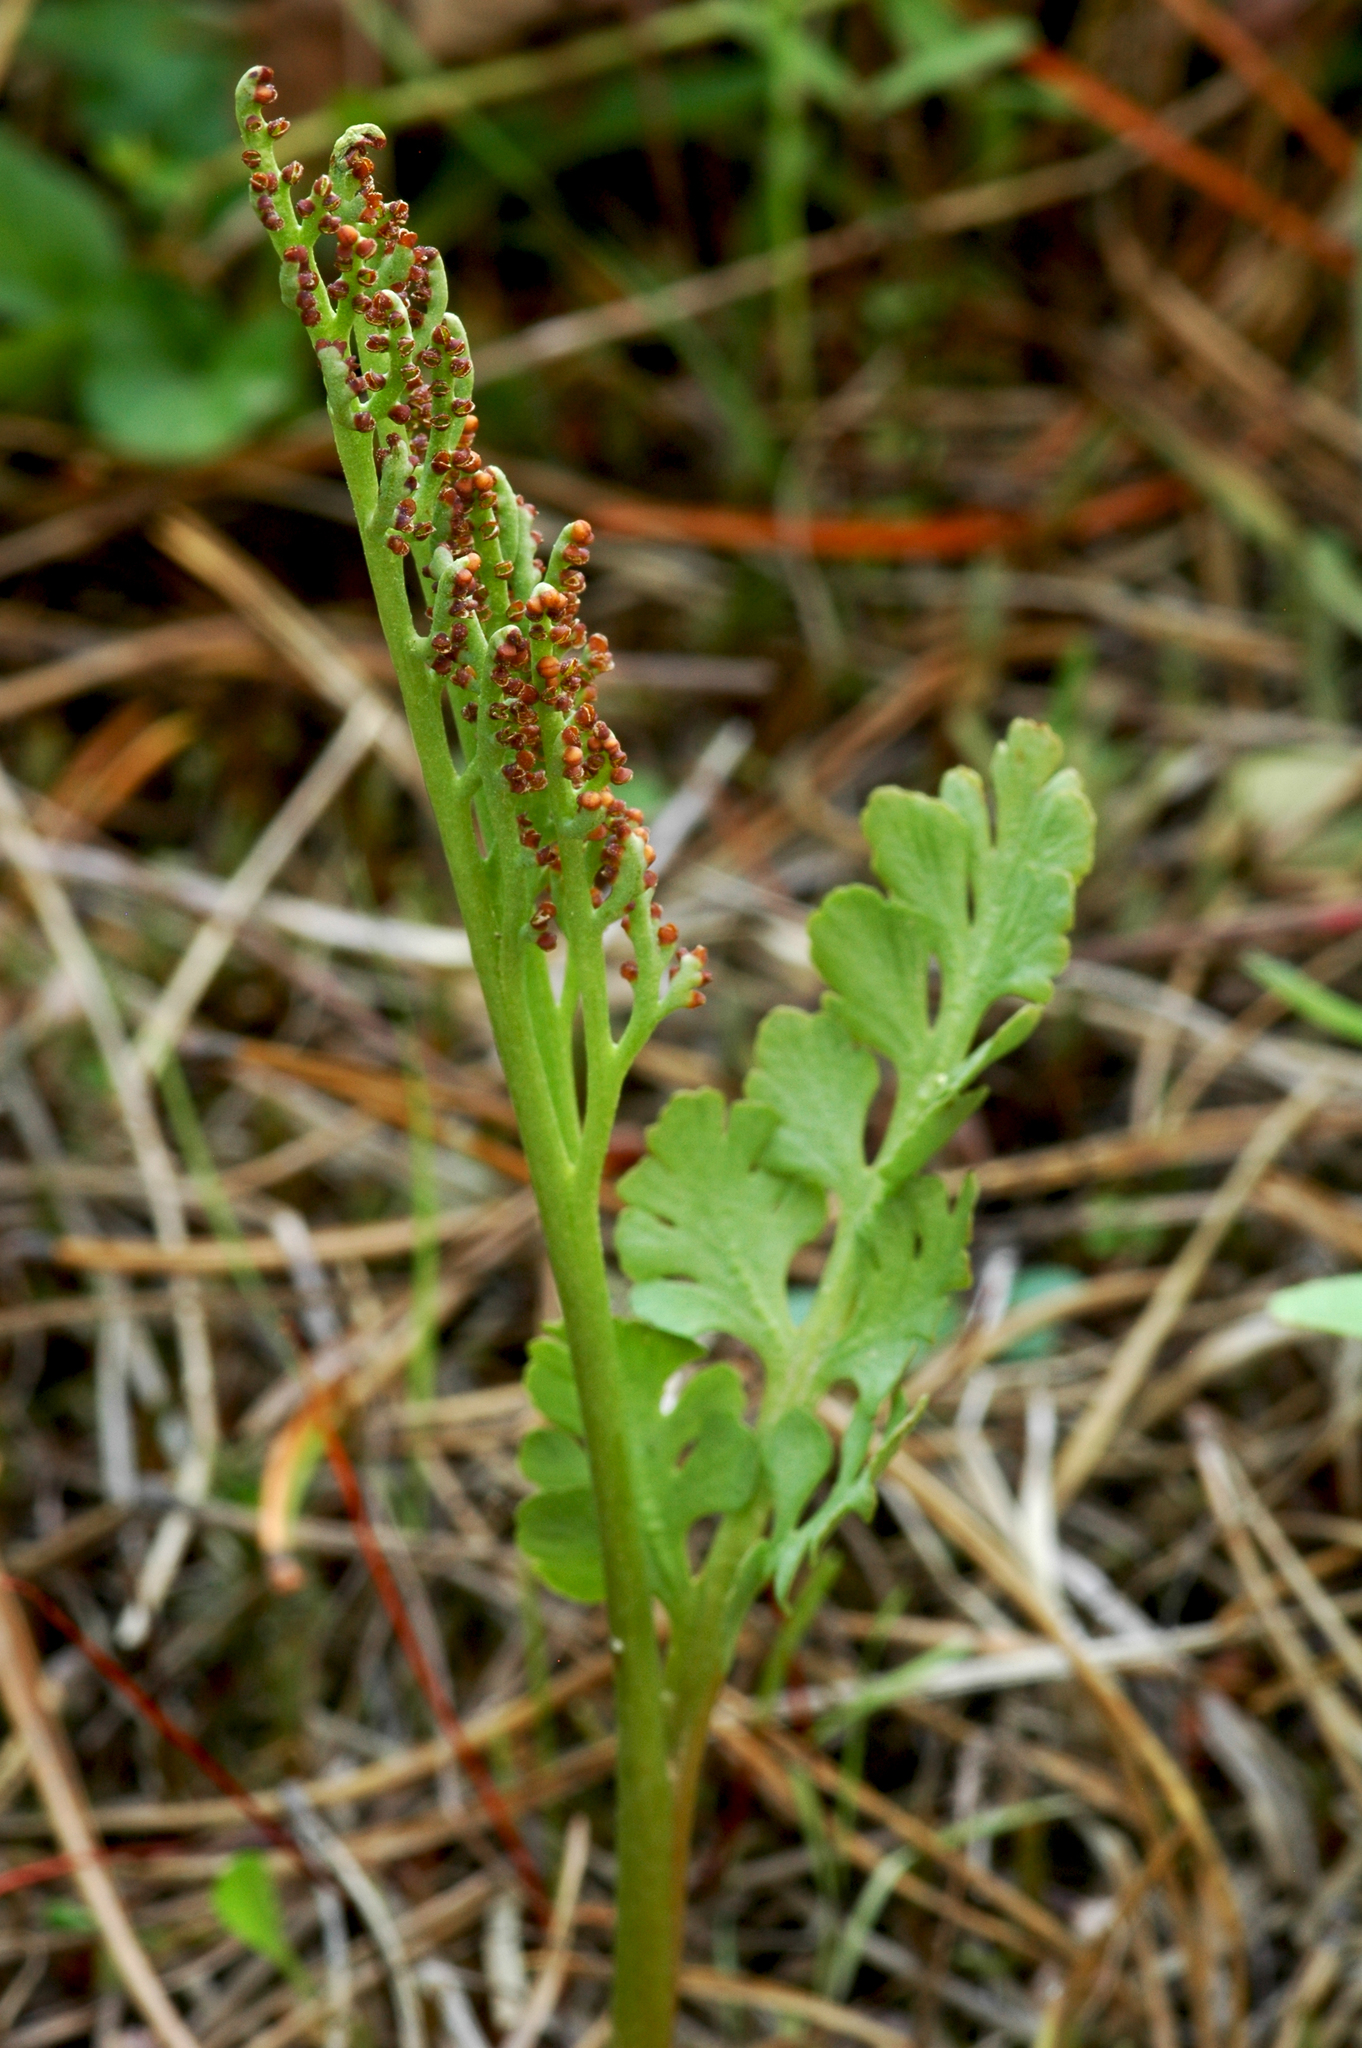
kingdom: Plantae
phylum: Tracheophyta
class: Polypodiopsida
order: Ophioglossales
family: Ophioglossaceae
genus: Botrychium
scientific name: Botrychium pinnatum
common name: Northwestern moonwort
